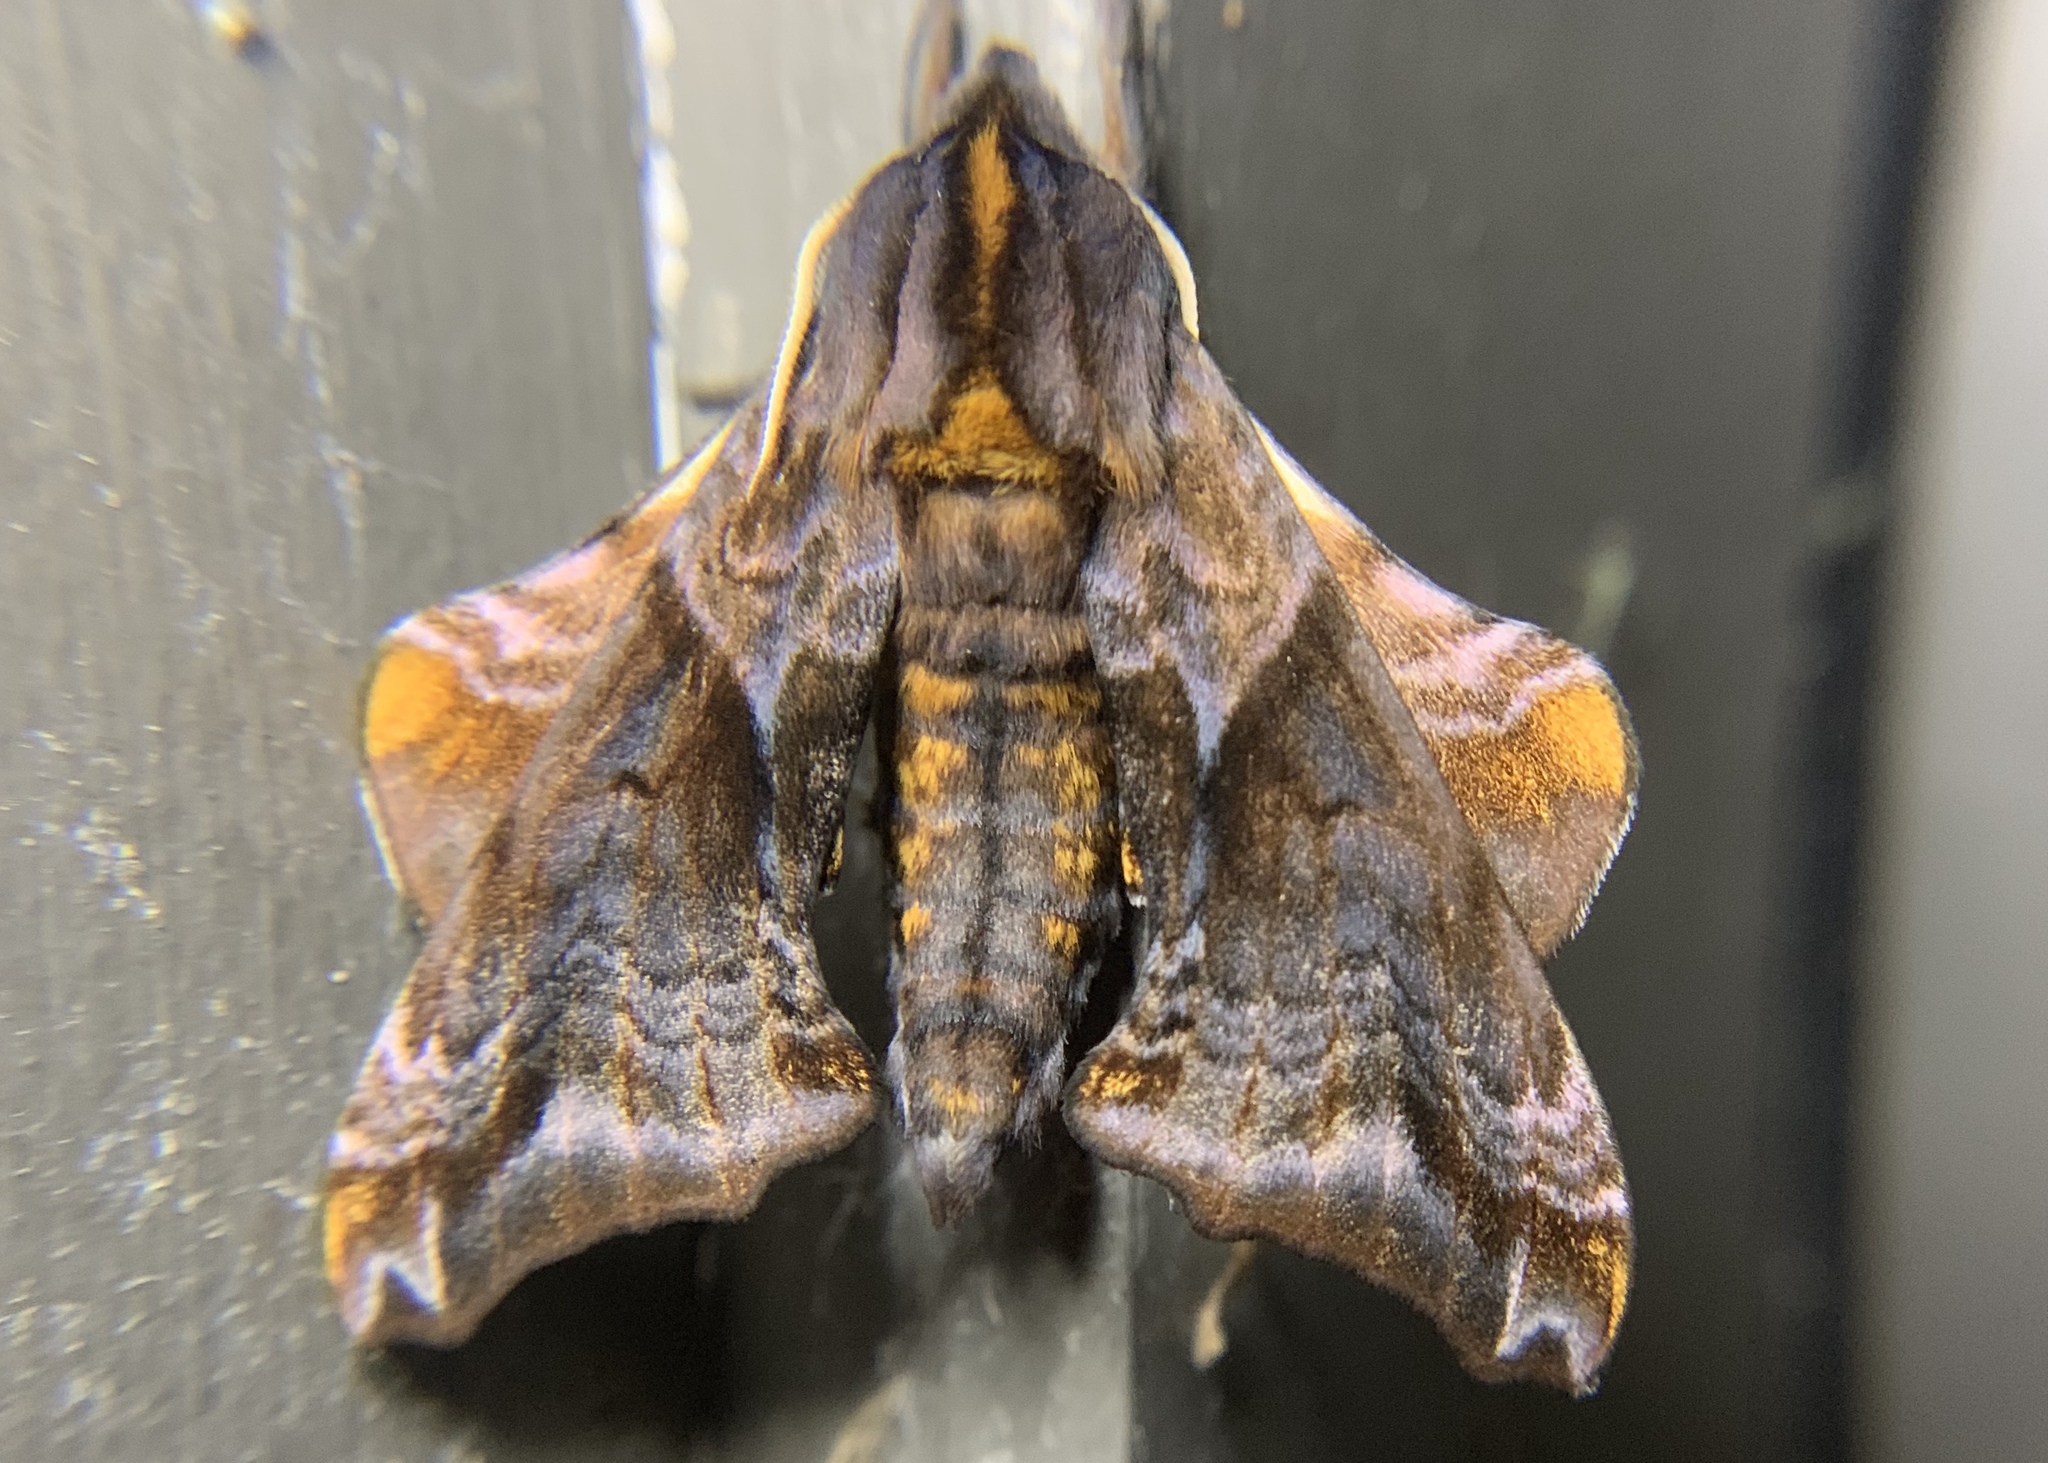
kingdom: Animalia
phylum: Arthropoda
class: Insecta
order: Lepidoptera
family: Sphingidae
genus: Paonias
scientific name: Paonias myops
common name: Small-eyed sphinx
